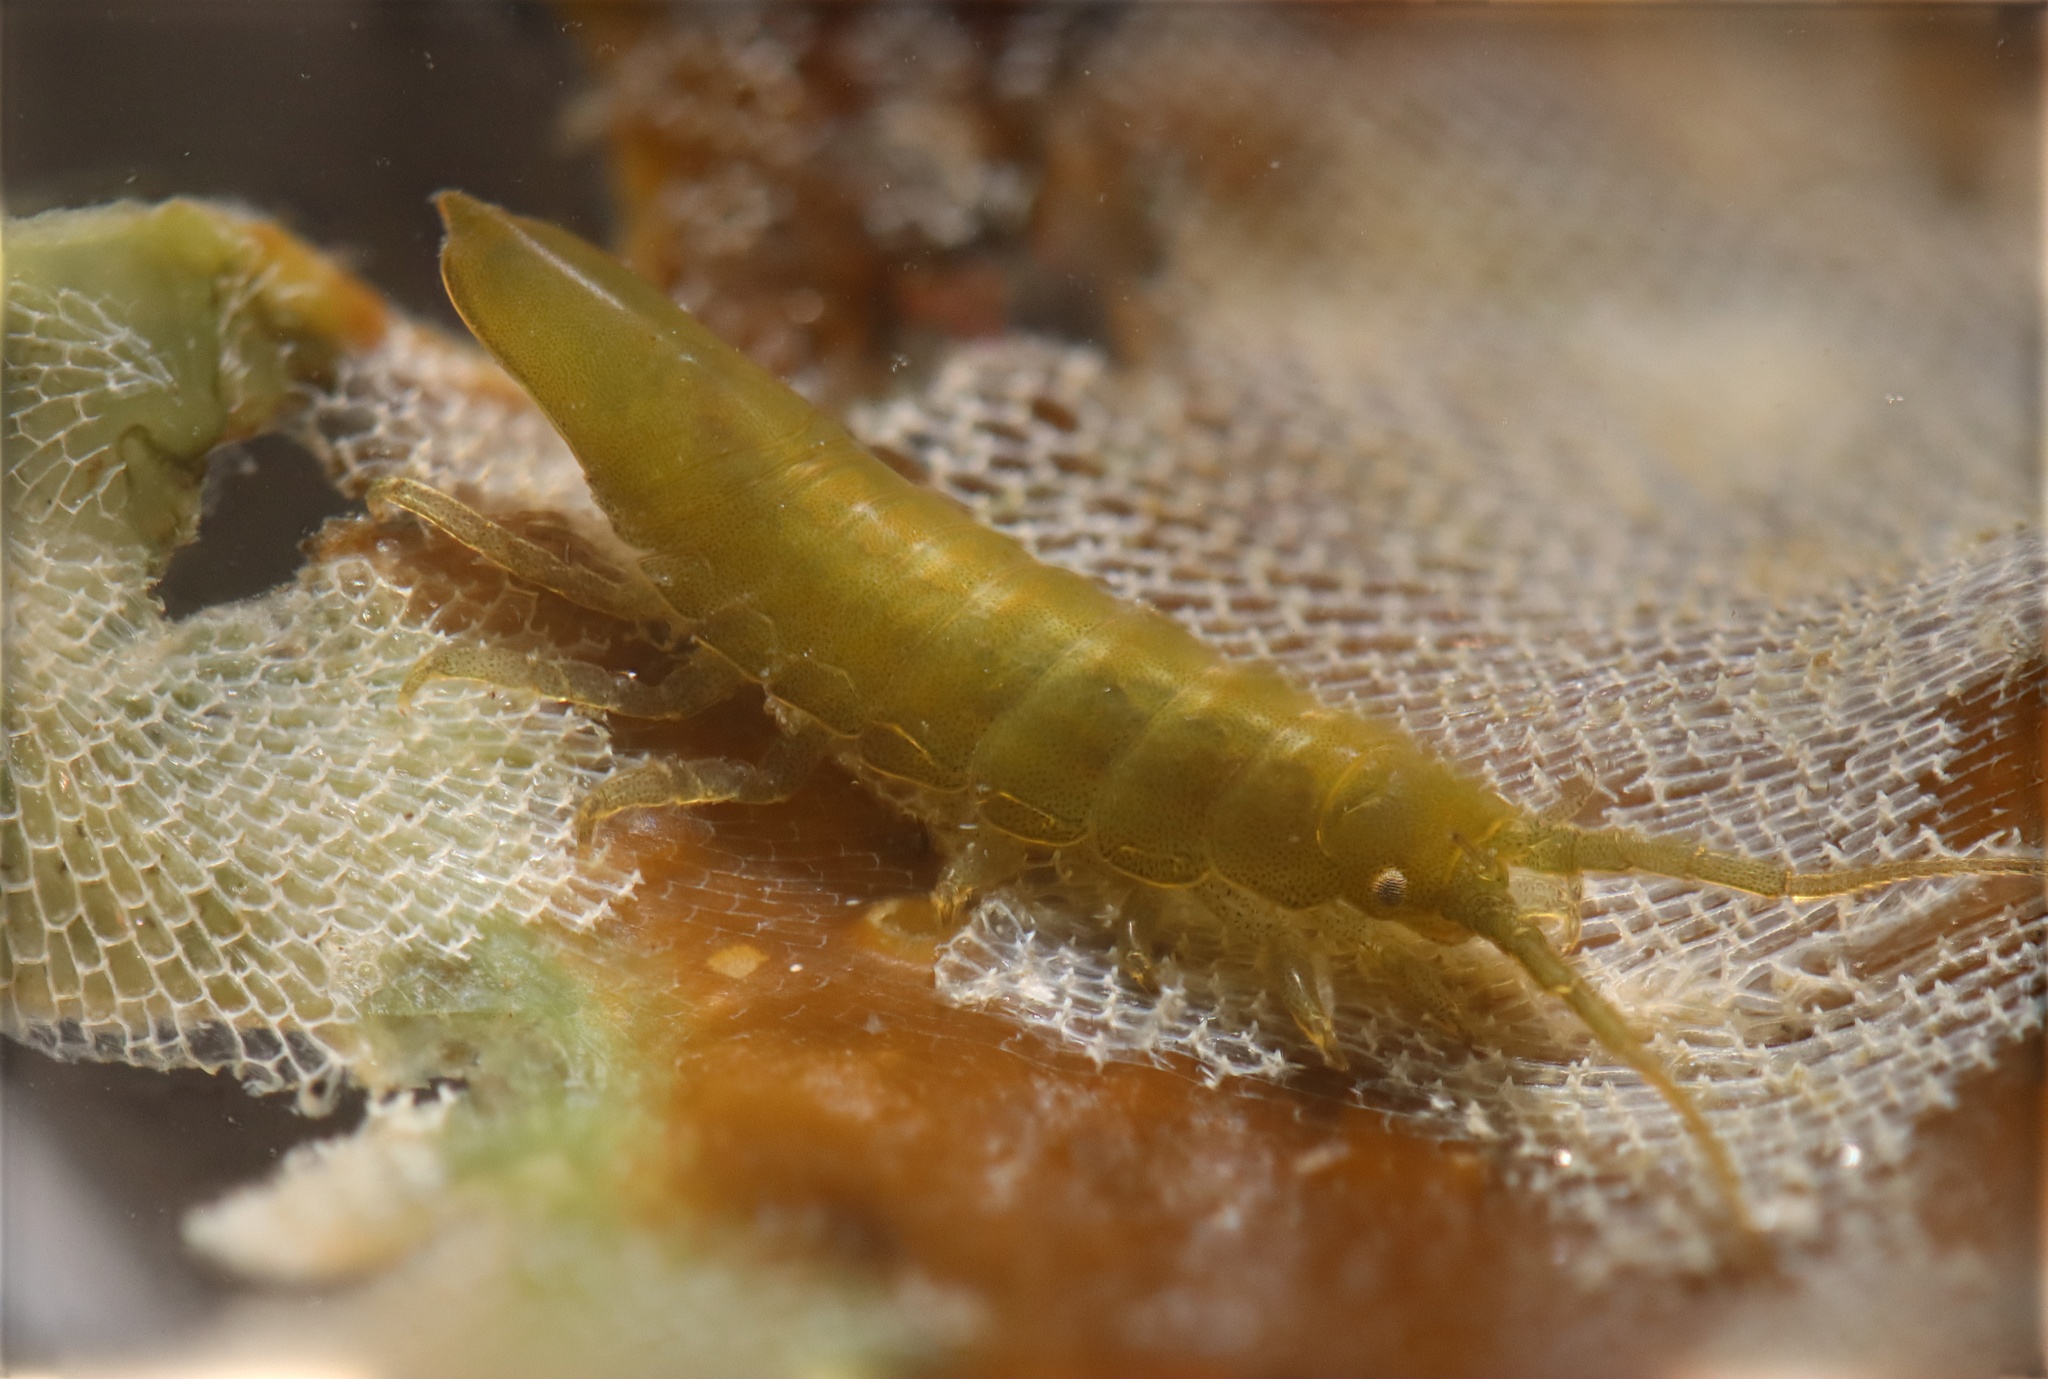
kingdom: Animalia
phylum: Arthropoda
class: Malacostraca
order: Isopoda
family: Idoteidae
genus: Idotea
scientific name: Idotea granulosa
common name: Granular marine isopod
